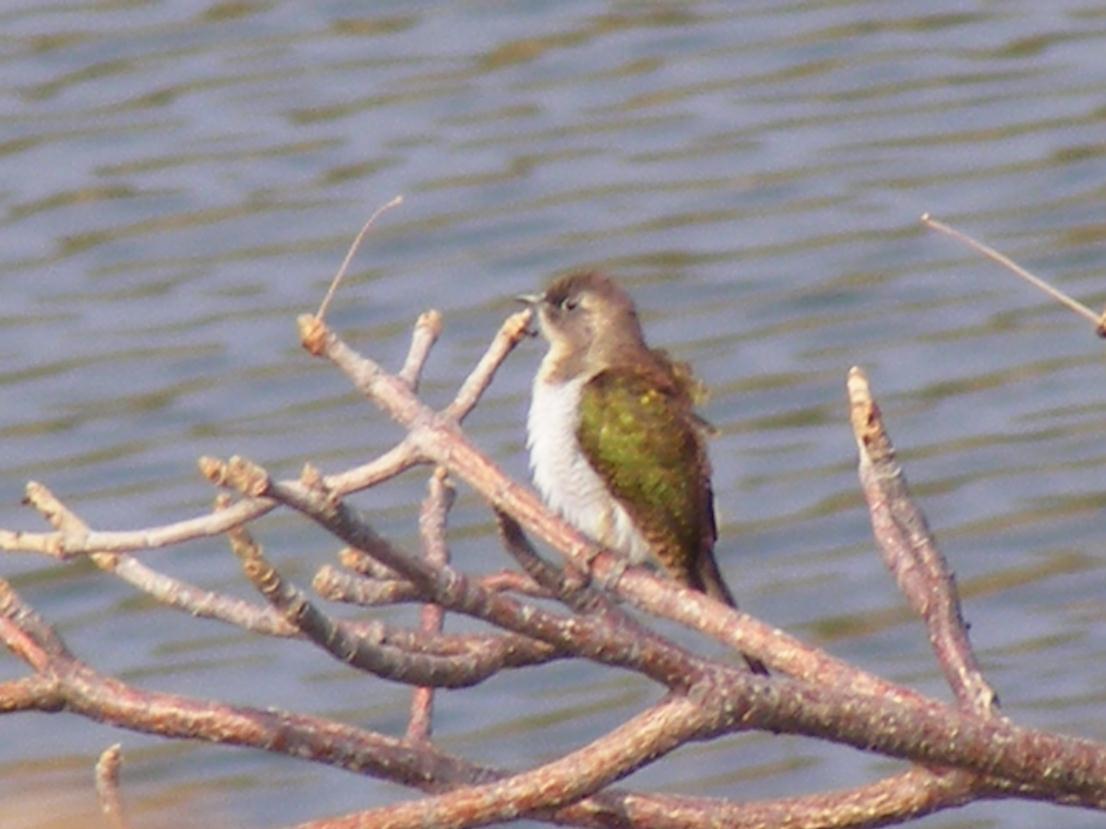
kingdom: Animalia
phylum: Chordata
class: Aves
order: Cuculiformes
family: Cuculidae
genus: Chrysococcyx
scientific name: Chrysococcyx klaas
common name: Klaas's cuckoo
